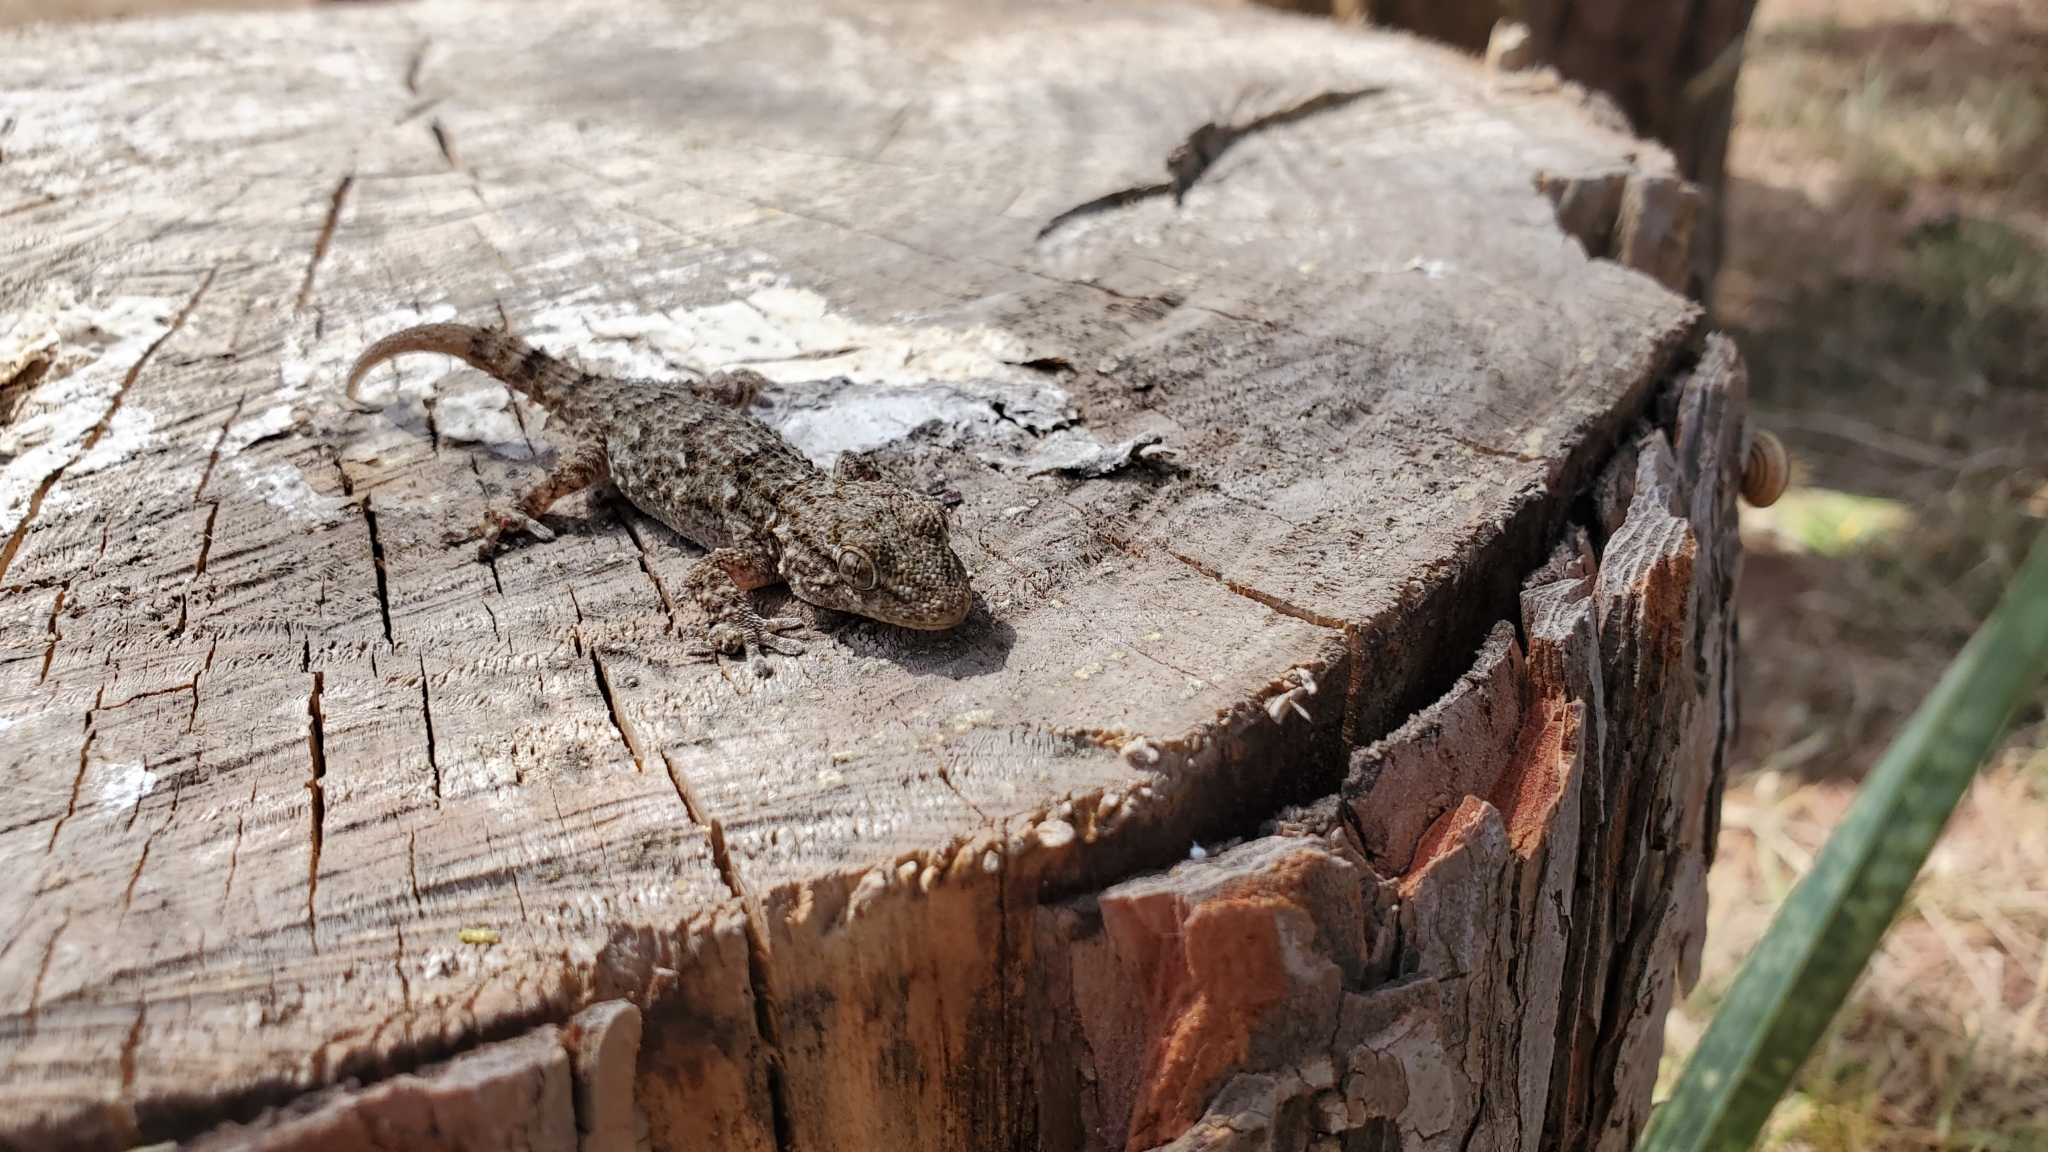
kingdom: Animalia
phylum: Chordata
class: Squamata
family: Phyllodactylidae
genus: Tarentola
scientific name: Tarentola mauritanica
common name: Moorish gecko
